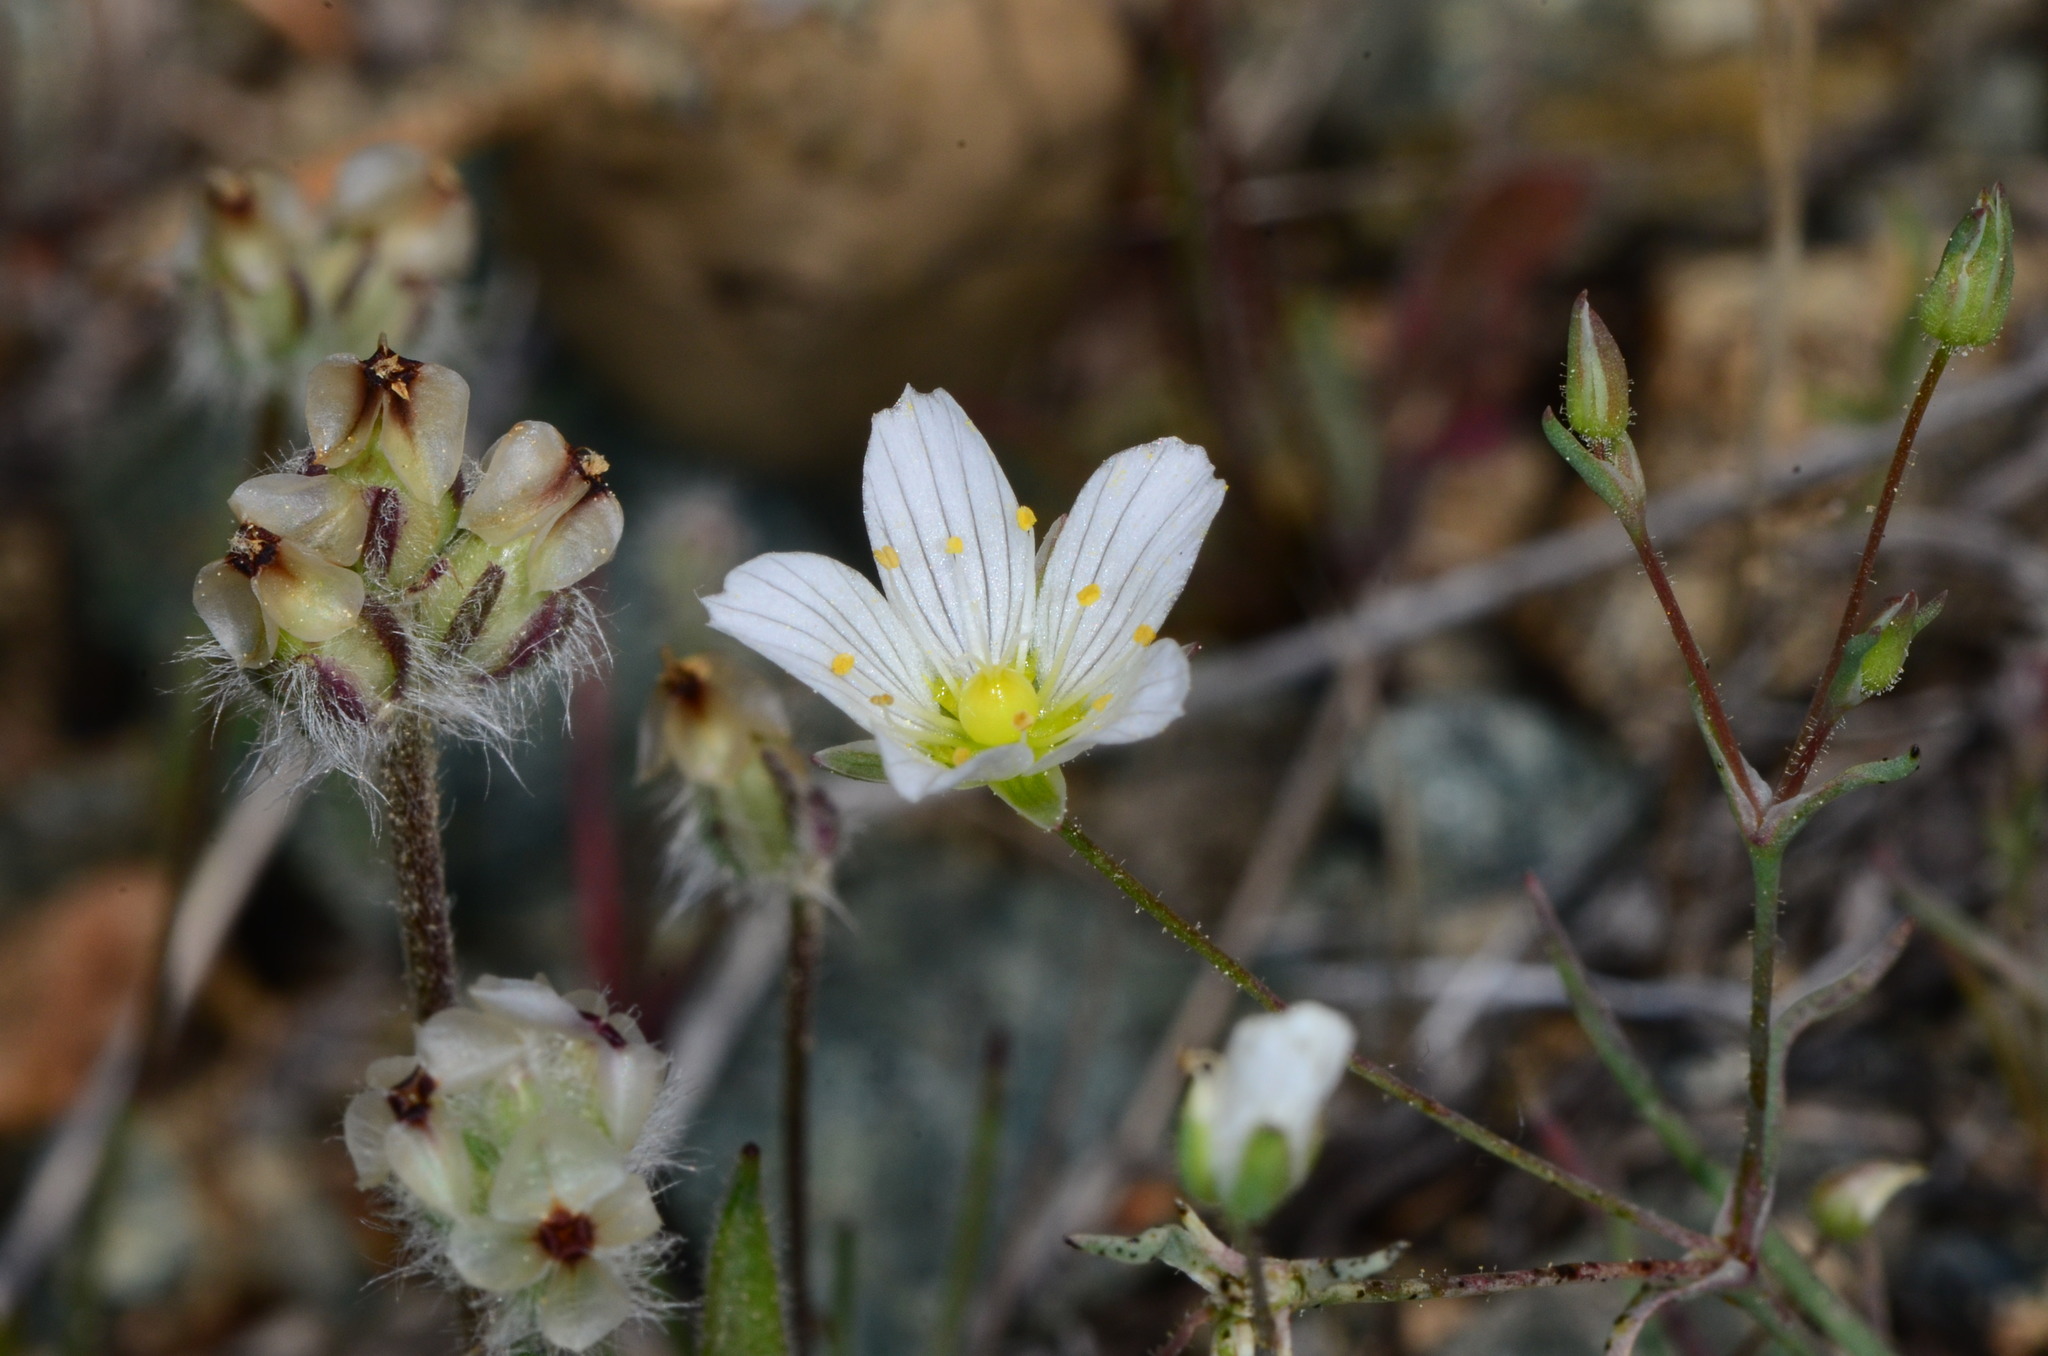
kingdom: Plantae
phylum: Tracheophyta
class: Magnoliopsida
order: Caryophyllales
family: Caryophyllaceae
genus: Sabulina
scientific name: Sabulina douglasii
